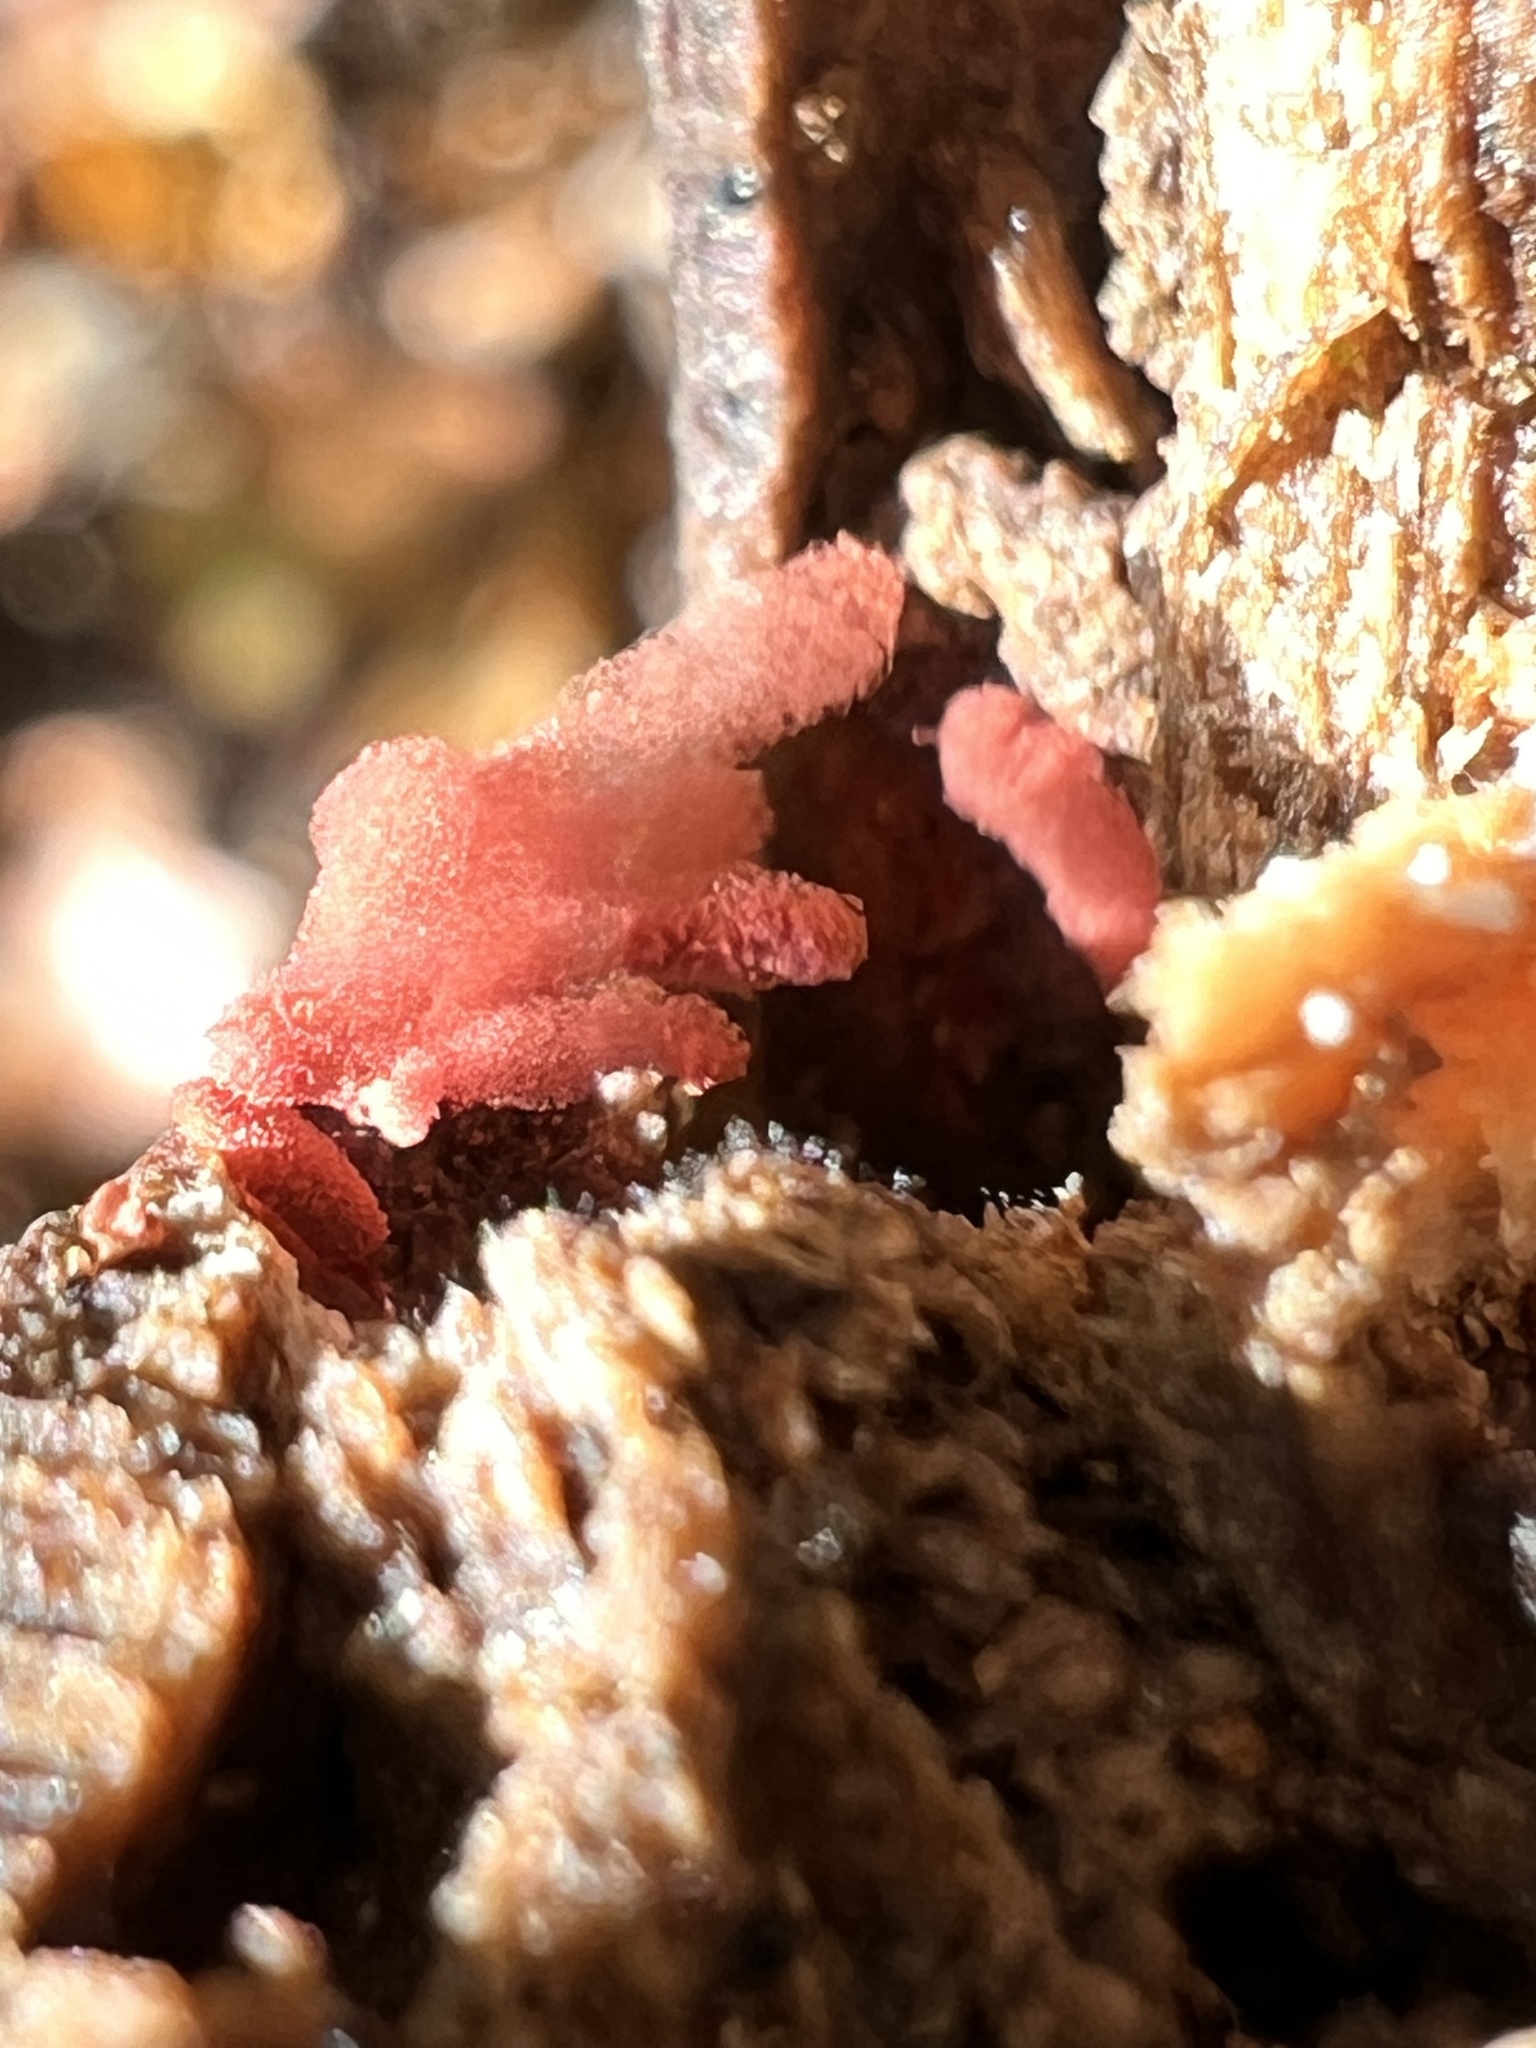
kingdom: Protozoa
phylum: Mycetozoa
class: Myxomycetes
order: Trichiales
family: Arcyriaceae
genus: Arcyria
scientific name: Arcyria denudata
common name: Carnival candy slime mold
